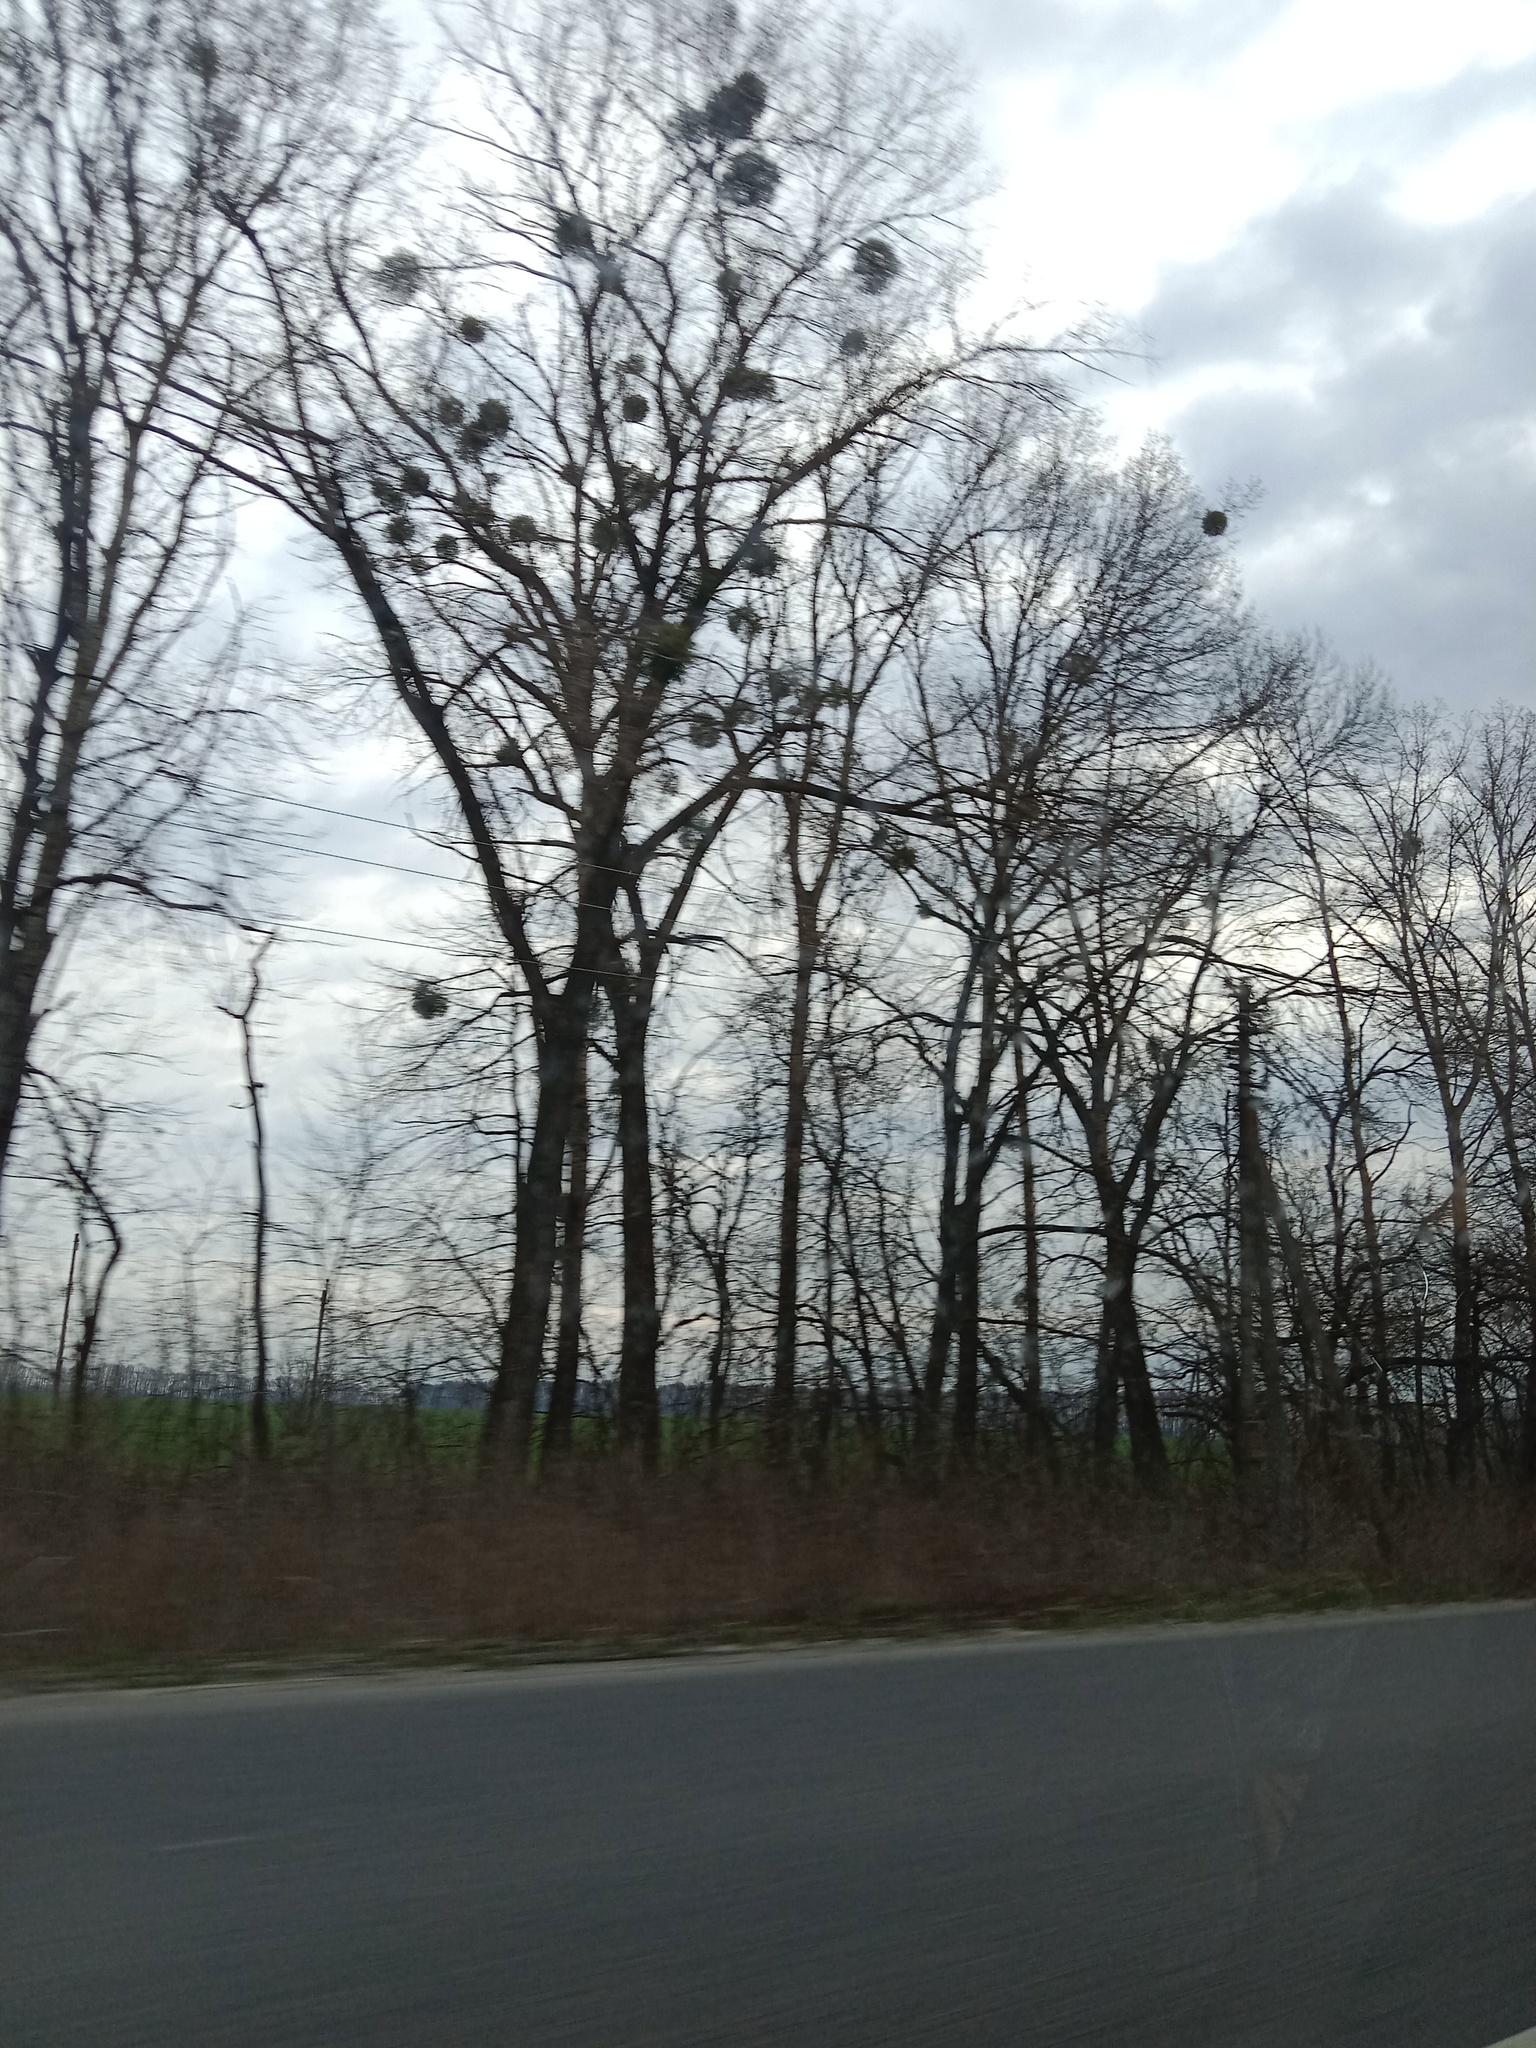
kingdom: Plantae
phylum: Tracheophyta
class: Magnoliopsida
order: Santalales
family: Viscaceae
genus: Viscum
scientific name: Viscum album
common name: Mistletoe
